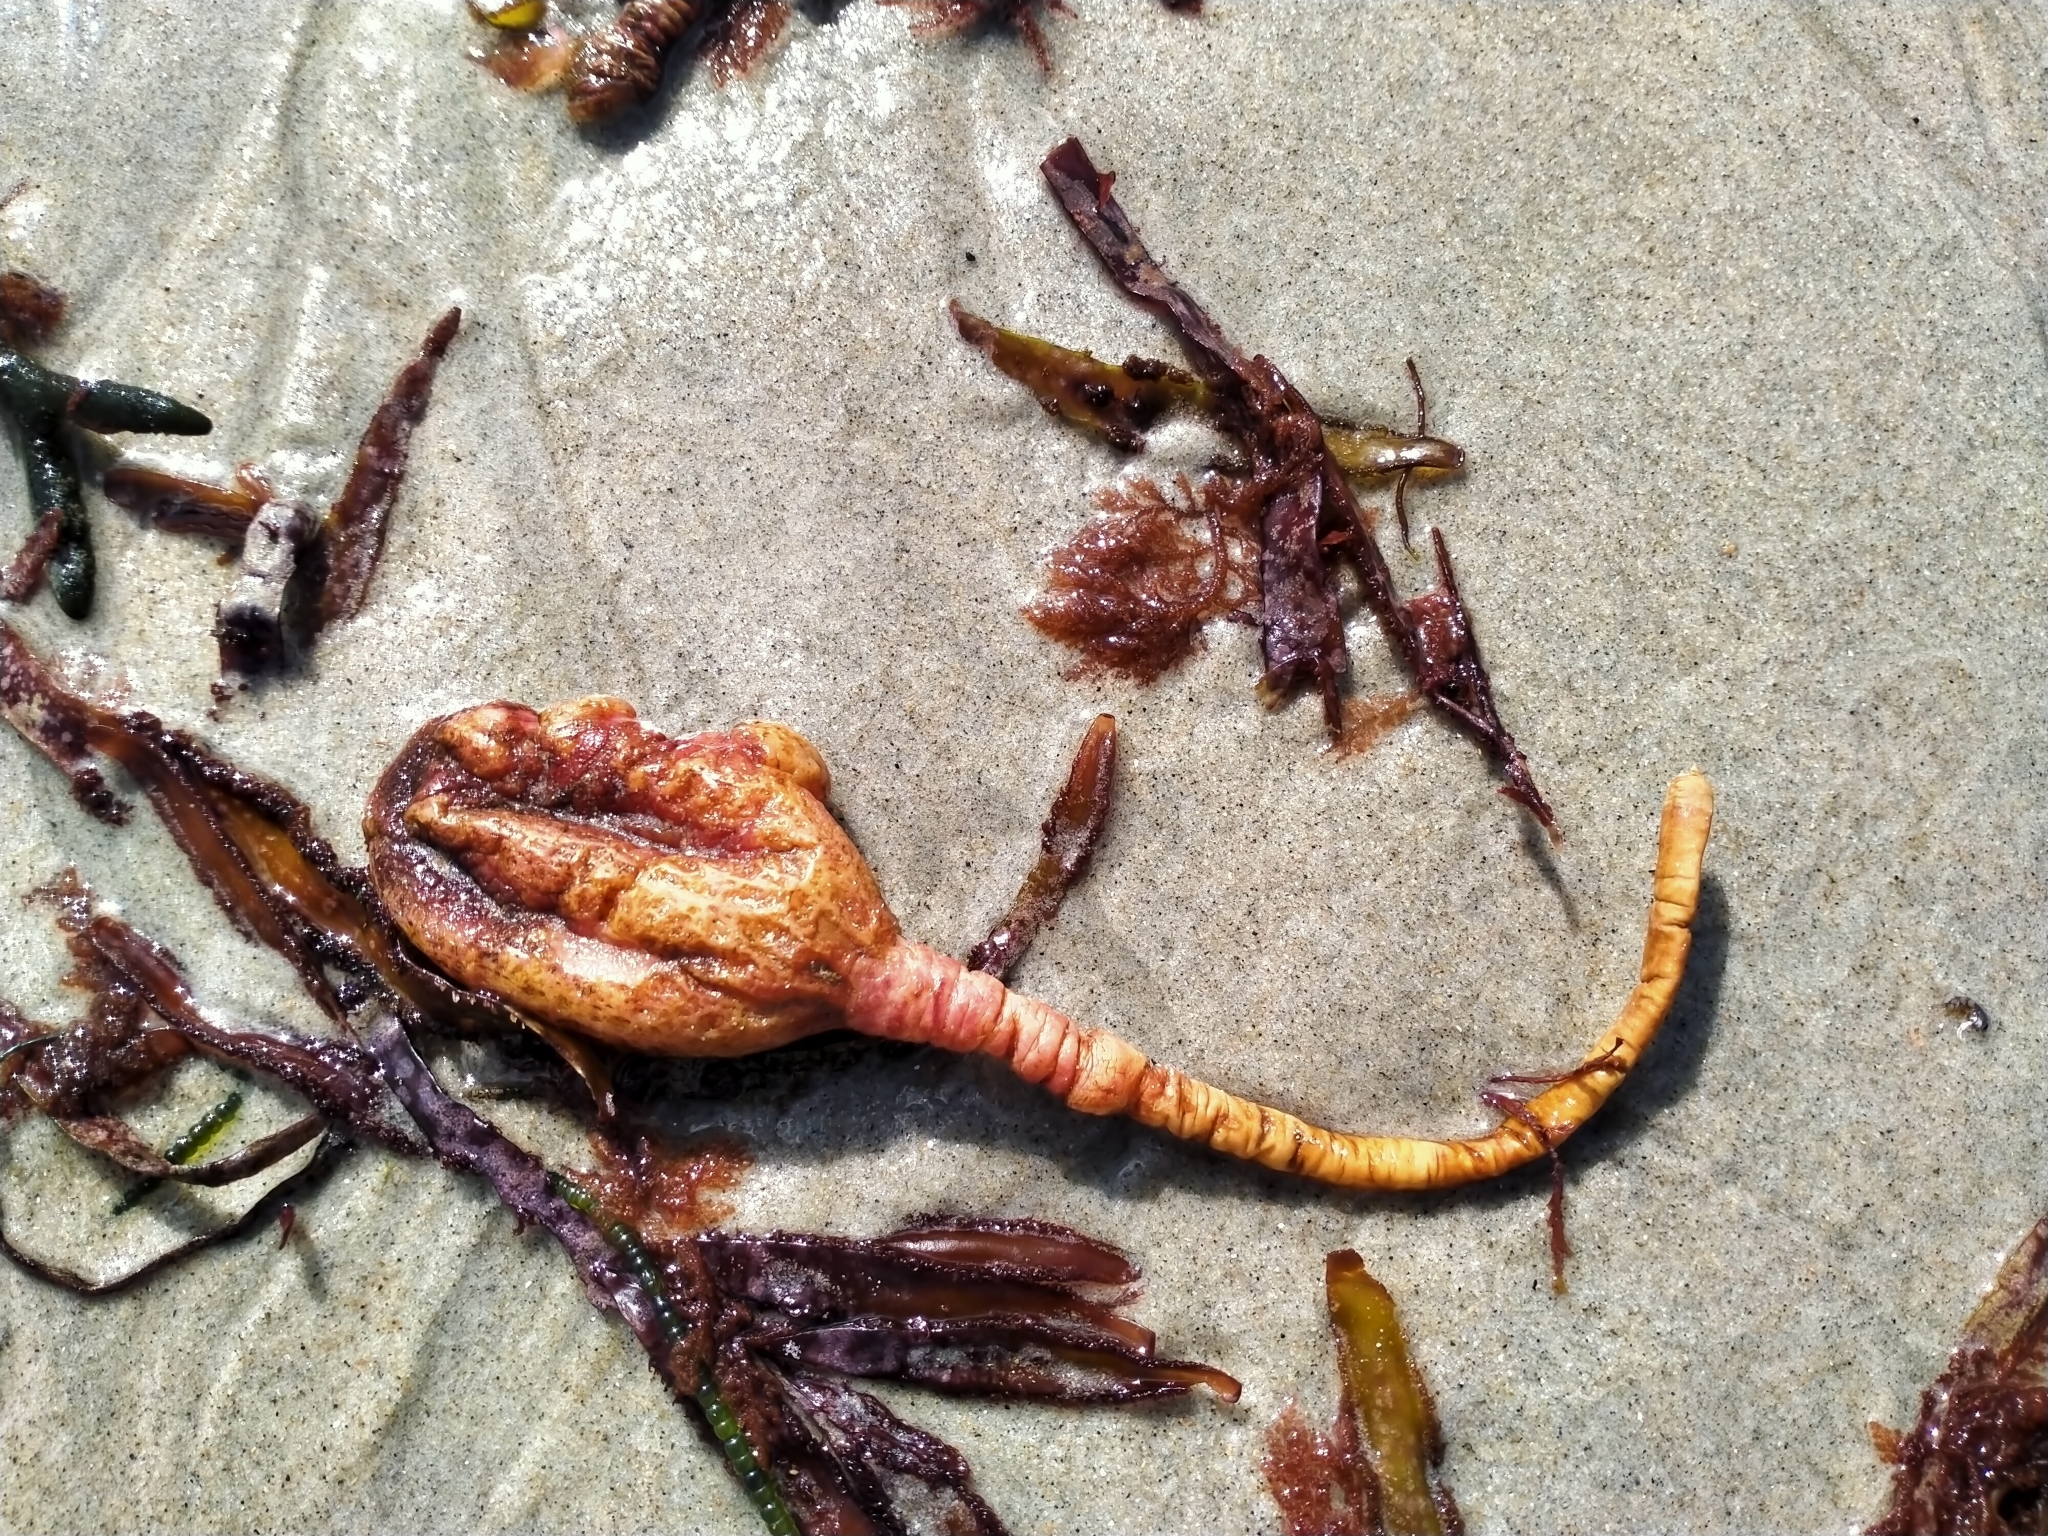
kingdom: Animalia
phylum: Chordata
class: Ascidiacea
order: Stolidobranchia
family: Pyuridae
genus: Pyura
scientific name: Pyura pachydermatina
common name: Sea tulip
